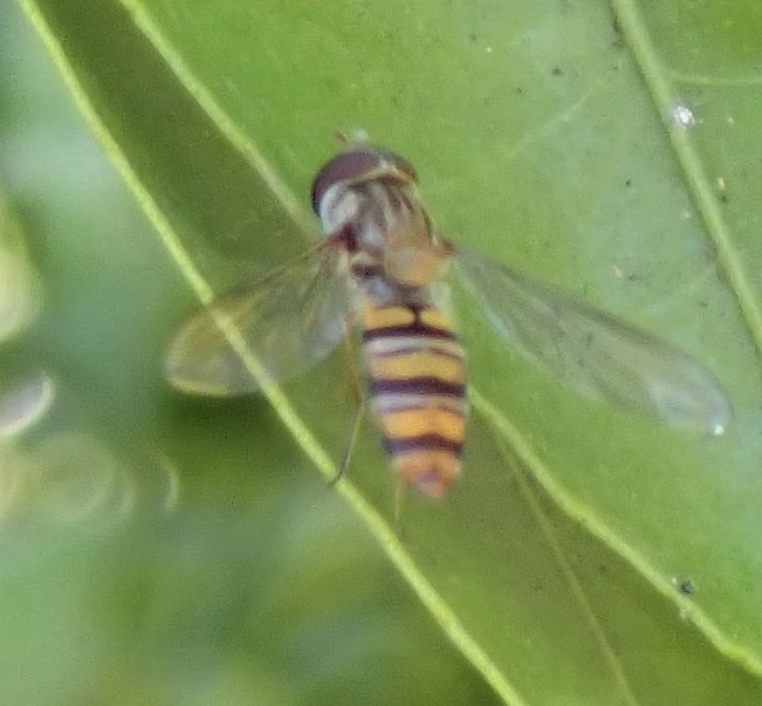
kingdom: Animalia
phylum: Arthropoda
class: Insecta
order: Diptera
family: Syrphidae
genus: Episyrphus
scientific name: Episyrphus balteatus
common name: Marmalade hoverfly
